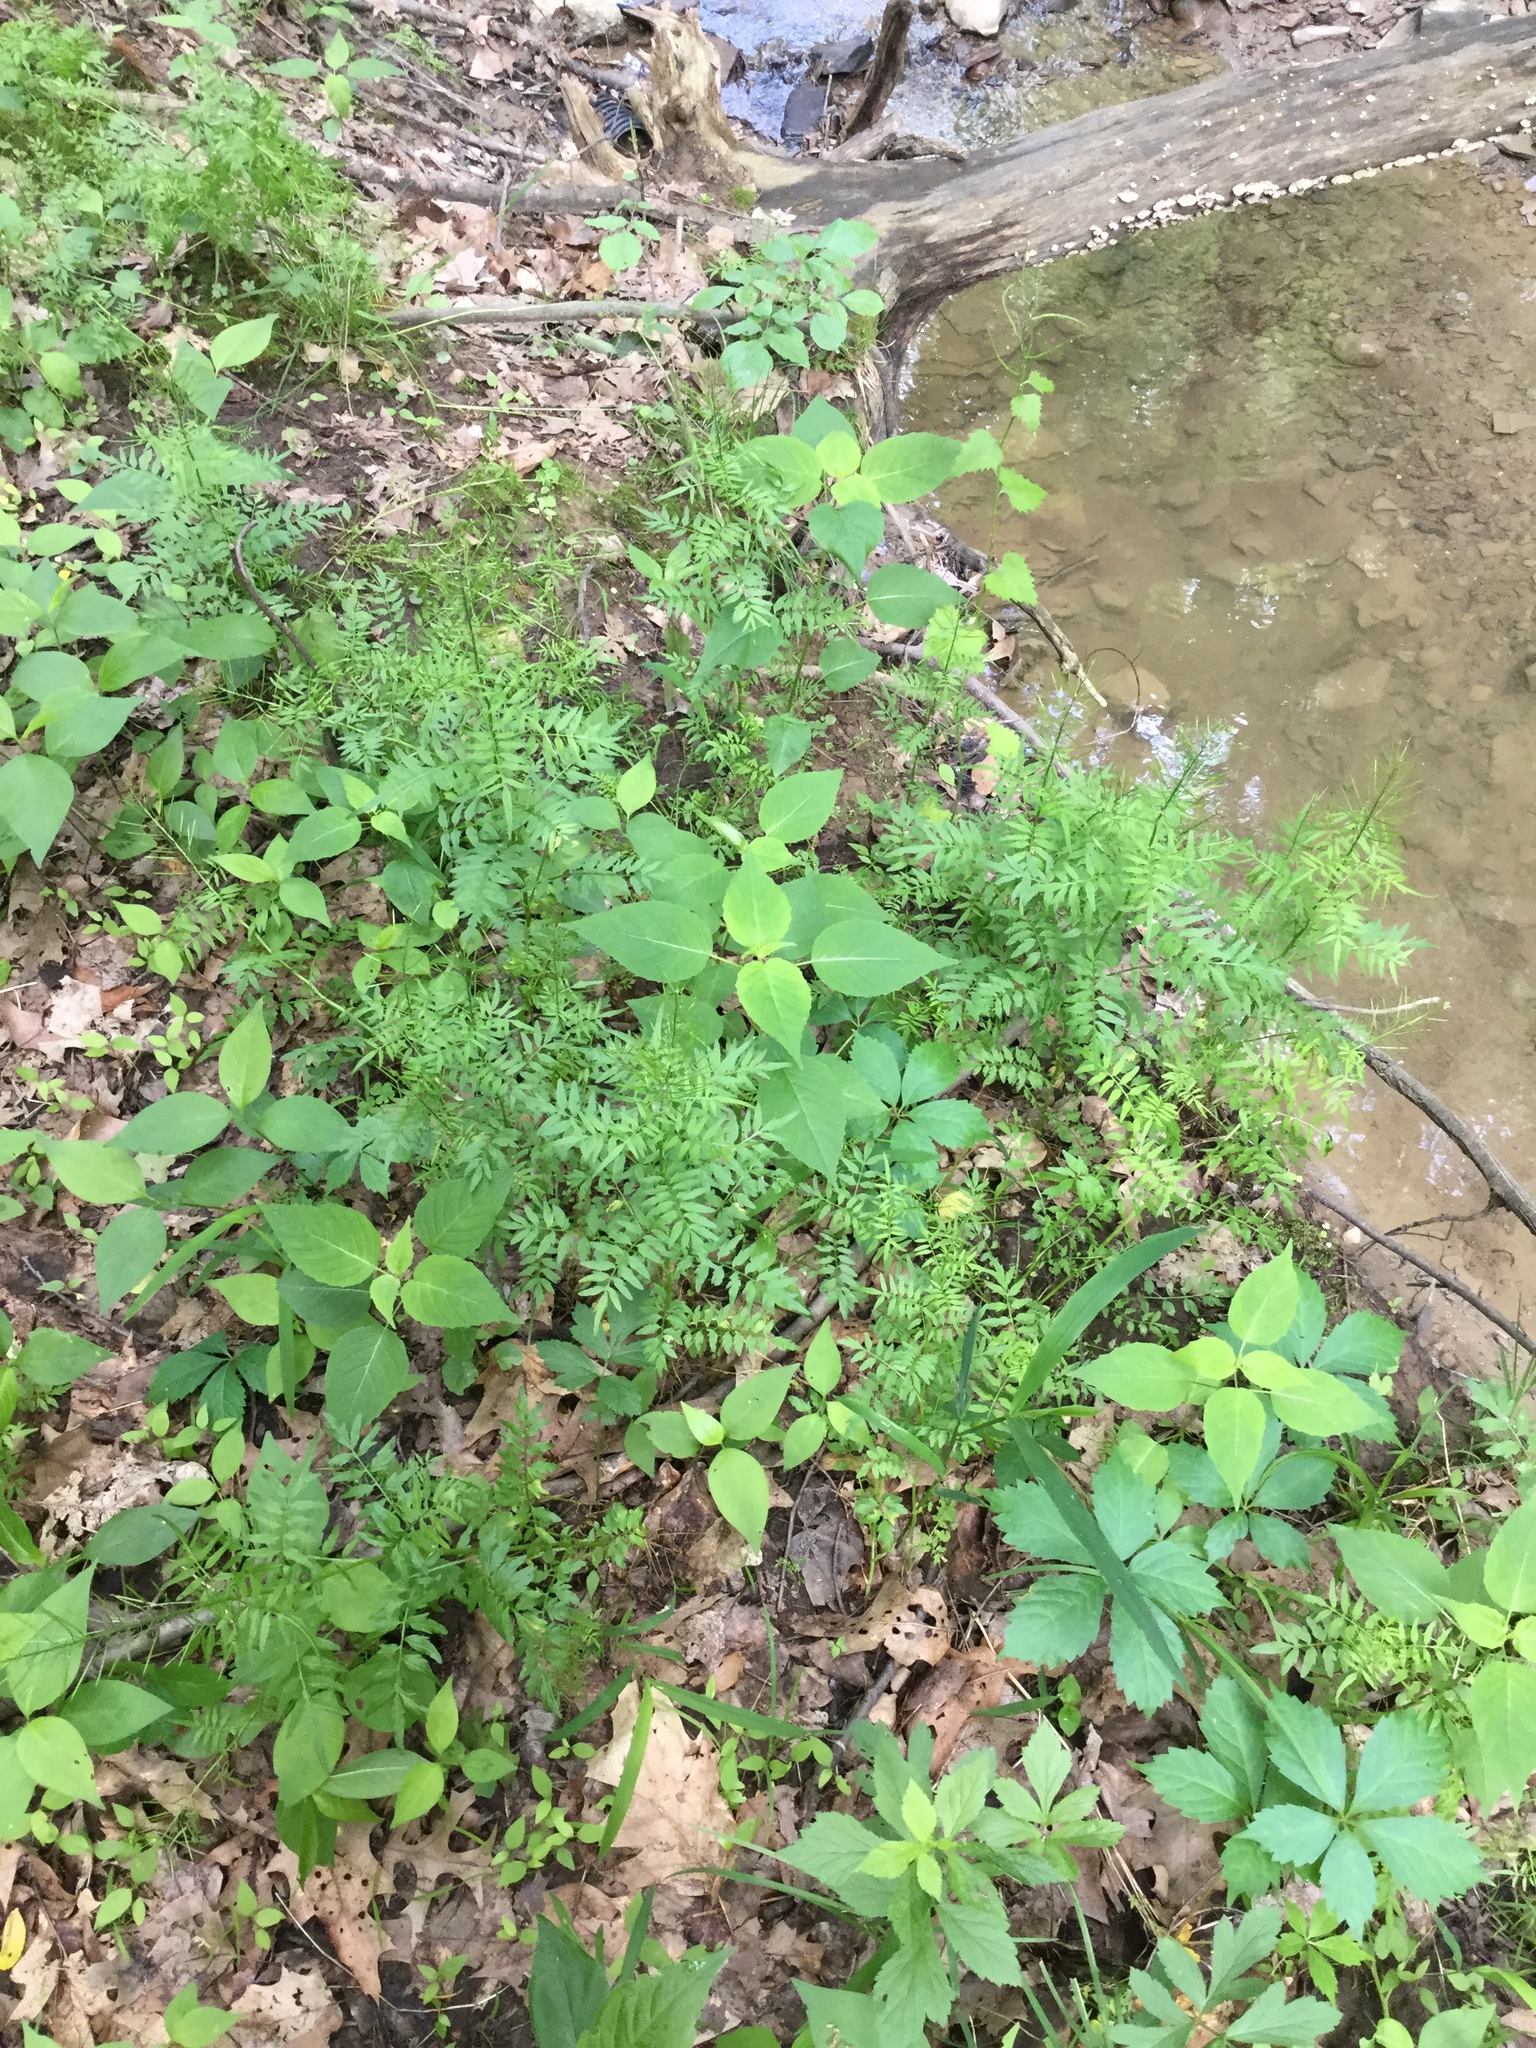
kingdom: Plantae
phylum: Tracheophyta
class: Magnoliopsida
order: Brassicales
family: Brassicaceae
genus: Cardamine
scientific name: Cardamine impatiens
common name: Narrow-leaved bitter-cress
